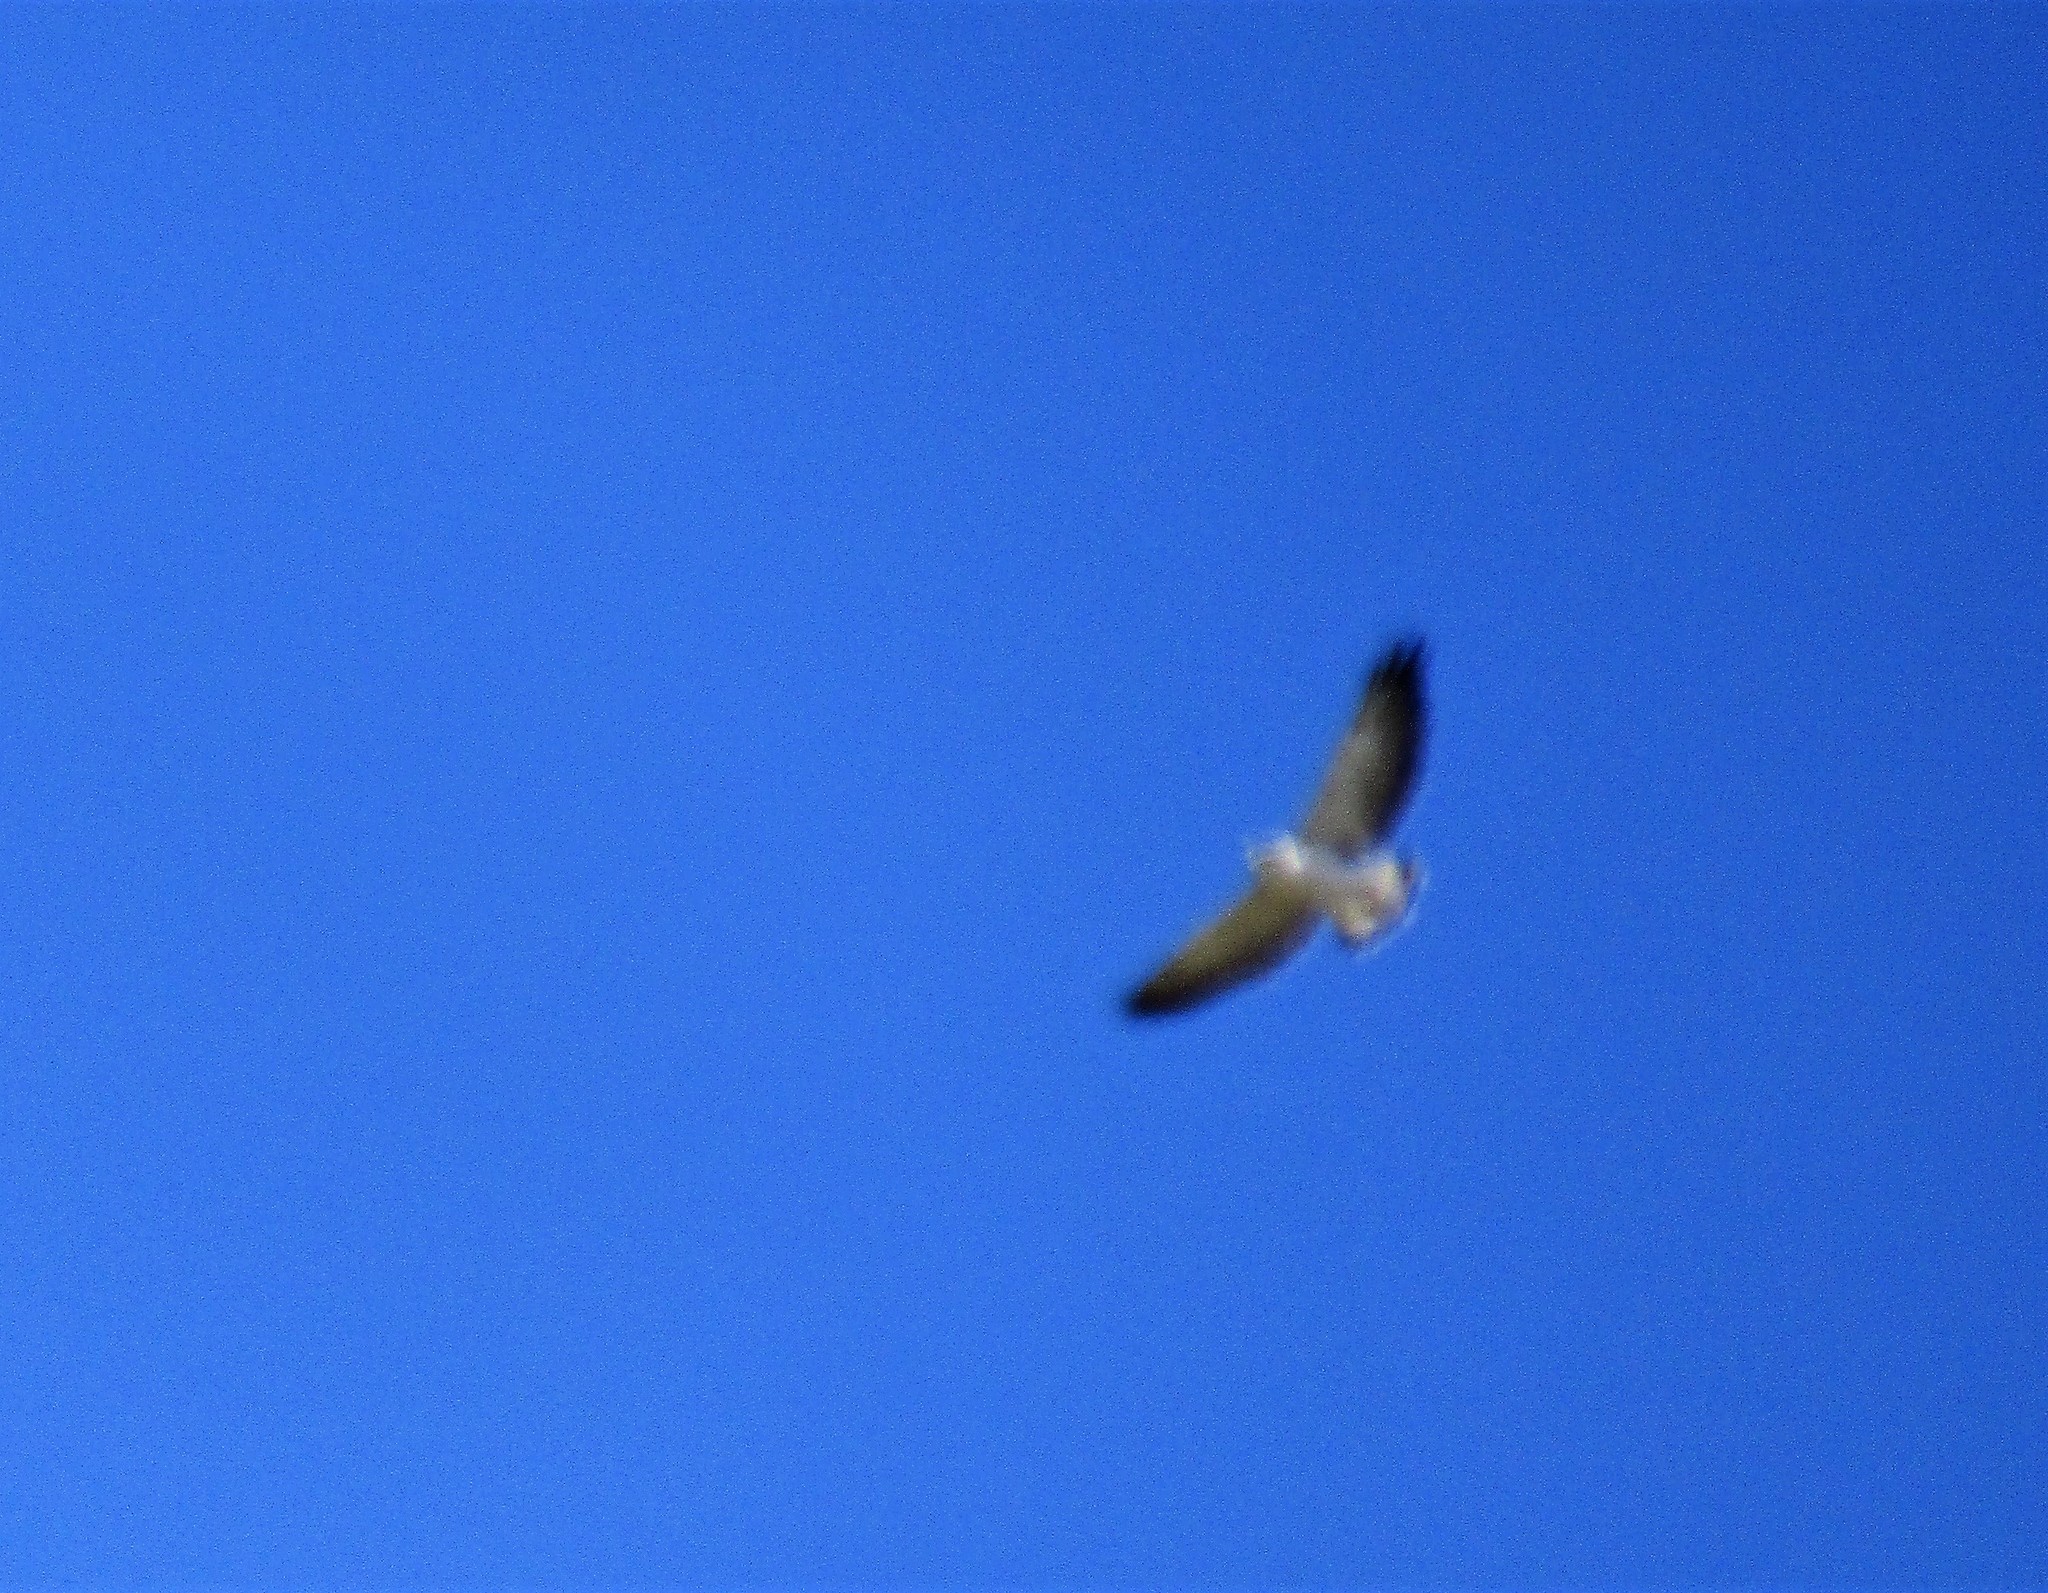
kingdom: Animalia
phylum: Chordata
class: Aves
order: Accipitriformes
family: Accipitridae
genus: Buteo
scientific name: Buteo polyosoma
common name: Variable hawk
